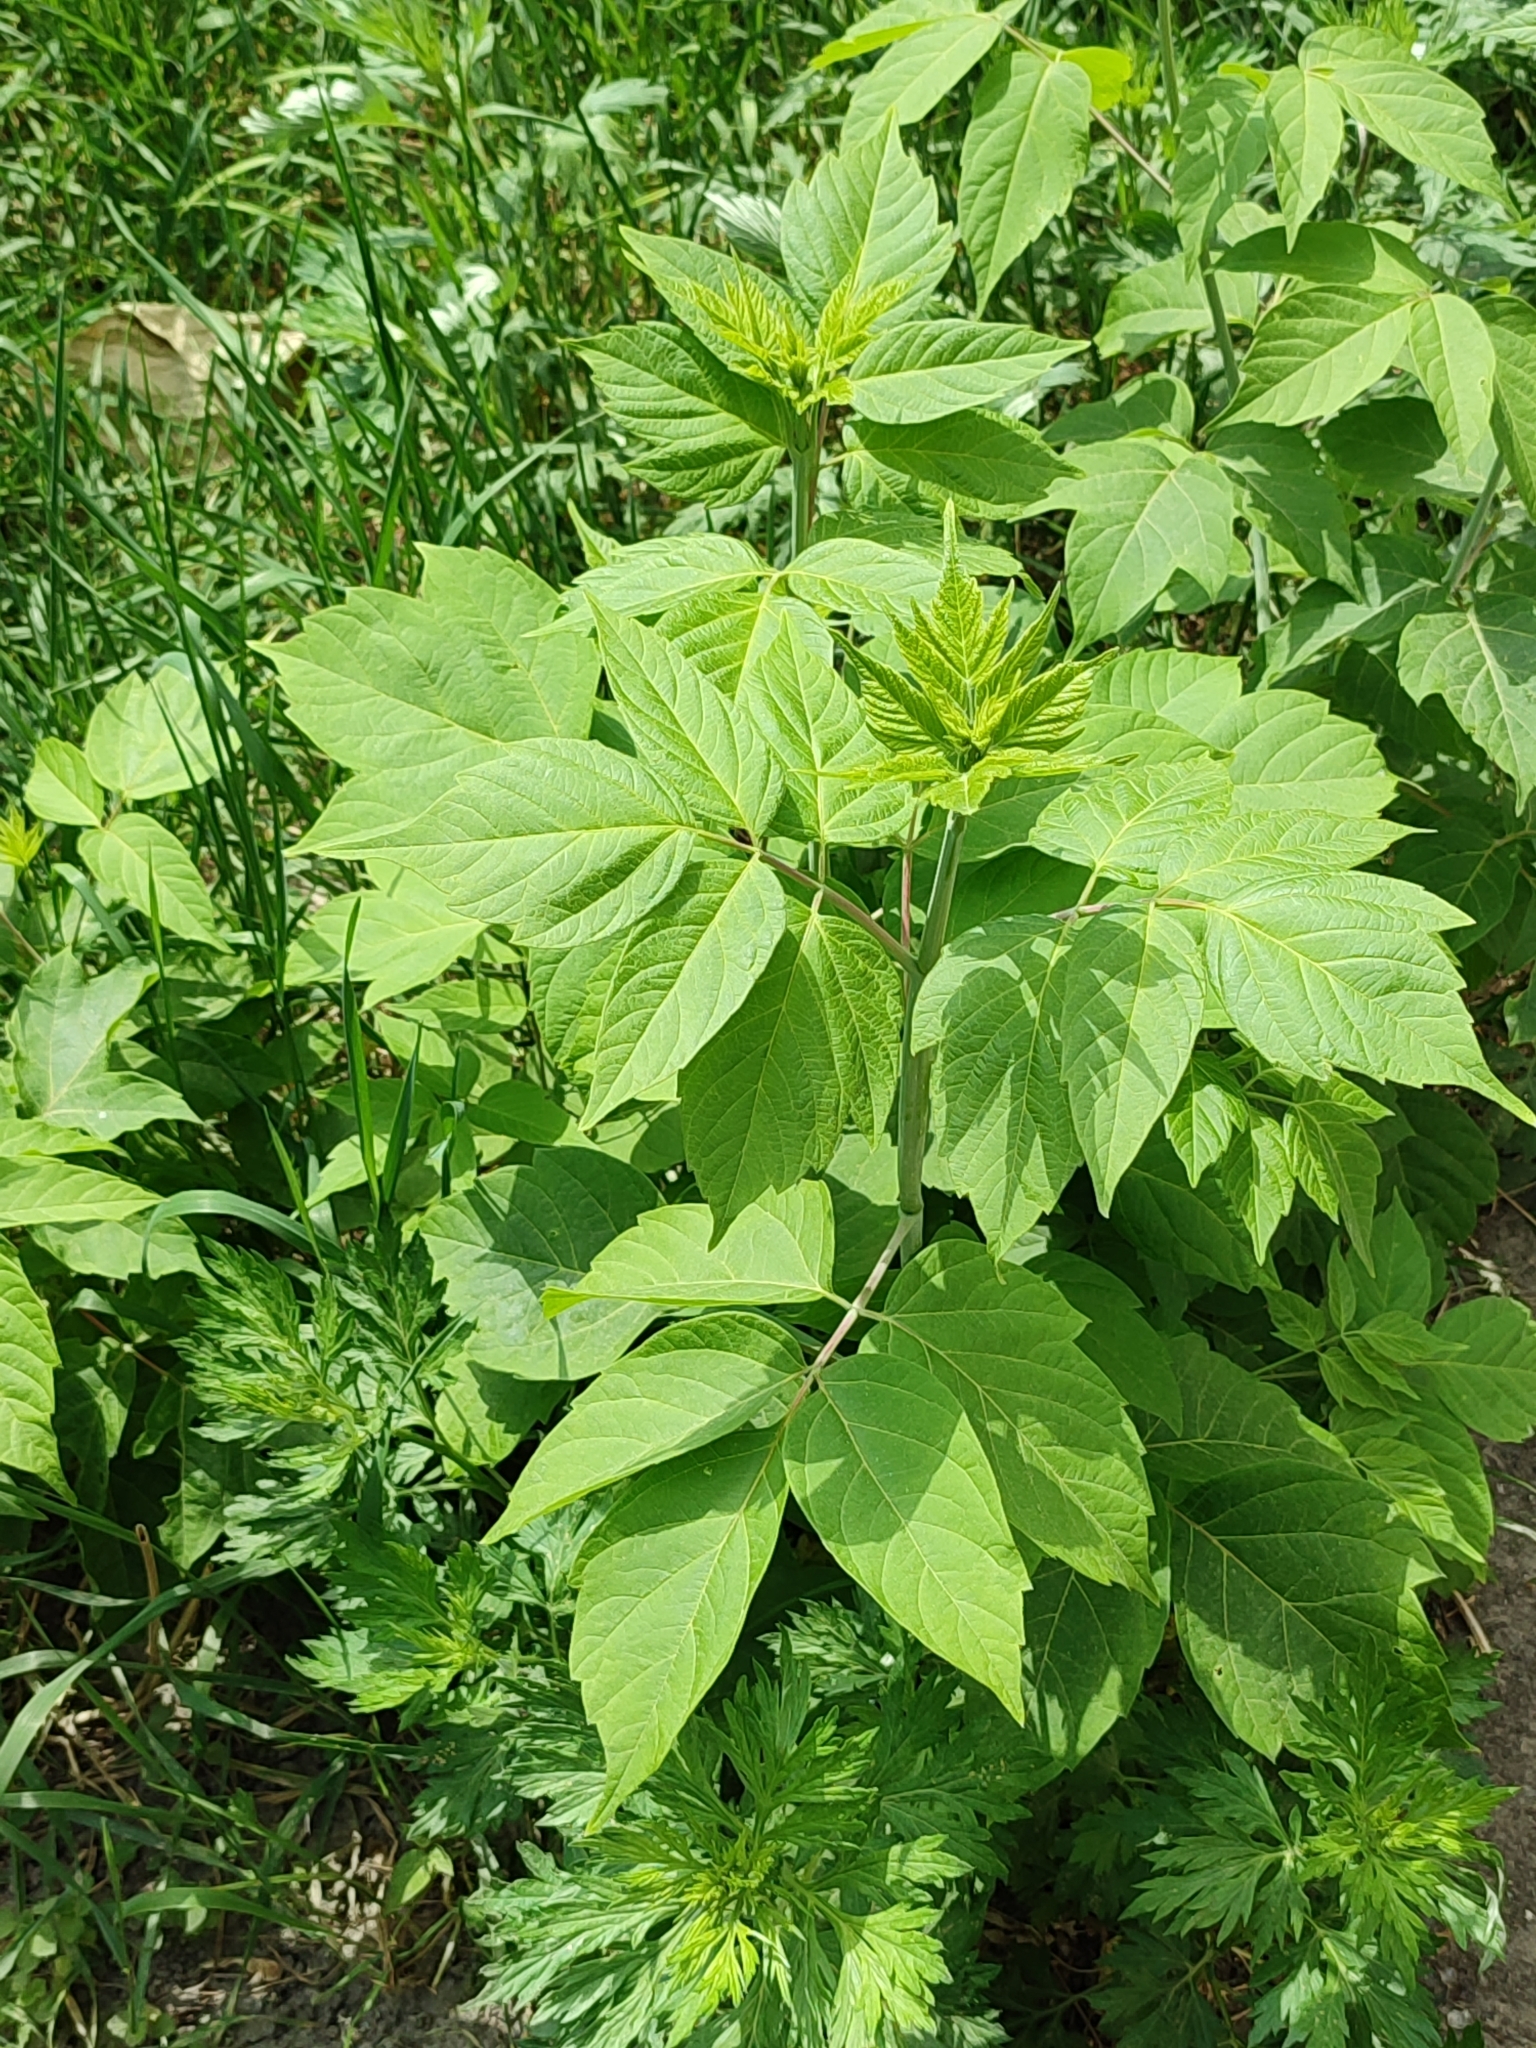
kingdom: Plantae
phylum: Tracheophyta
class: Magnoliopsida
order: Sapindales
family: Sapindaceae
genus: Acer
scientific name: Acer negundo
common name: Ashleaf maple
